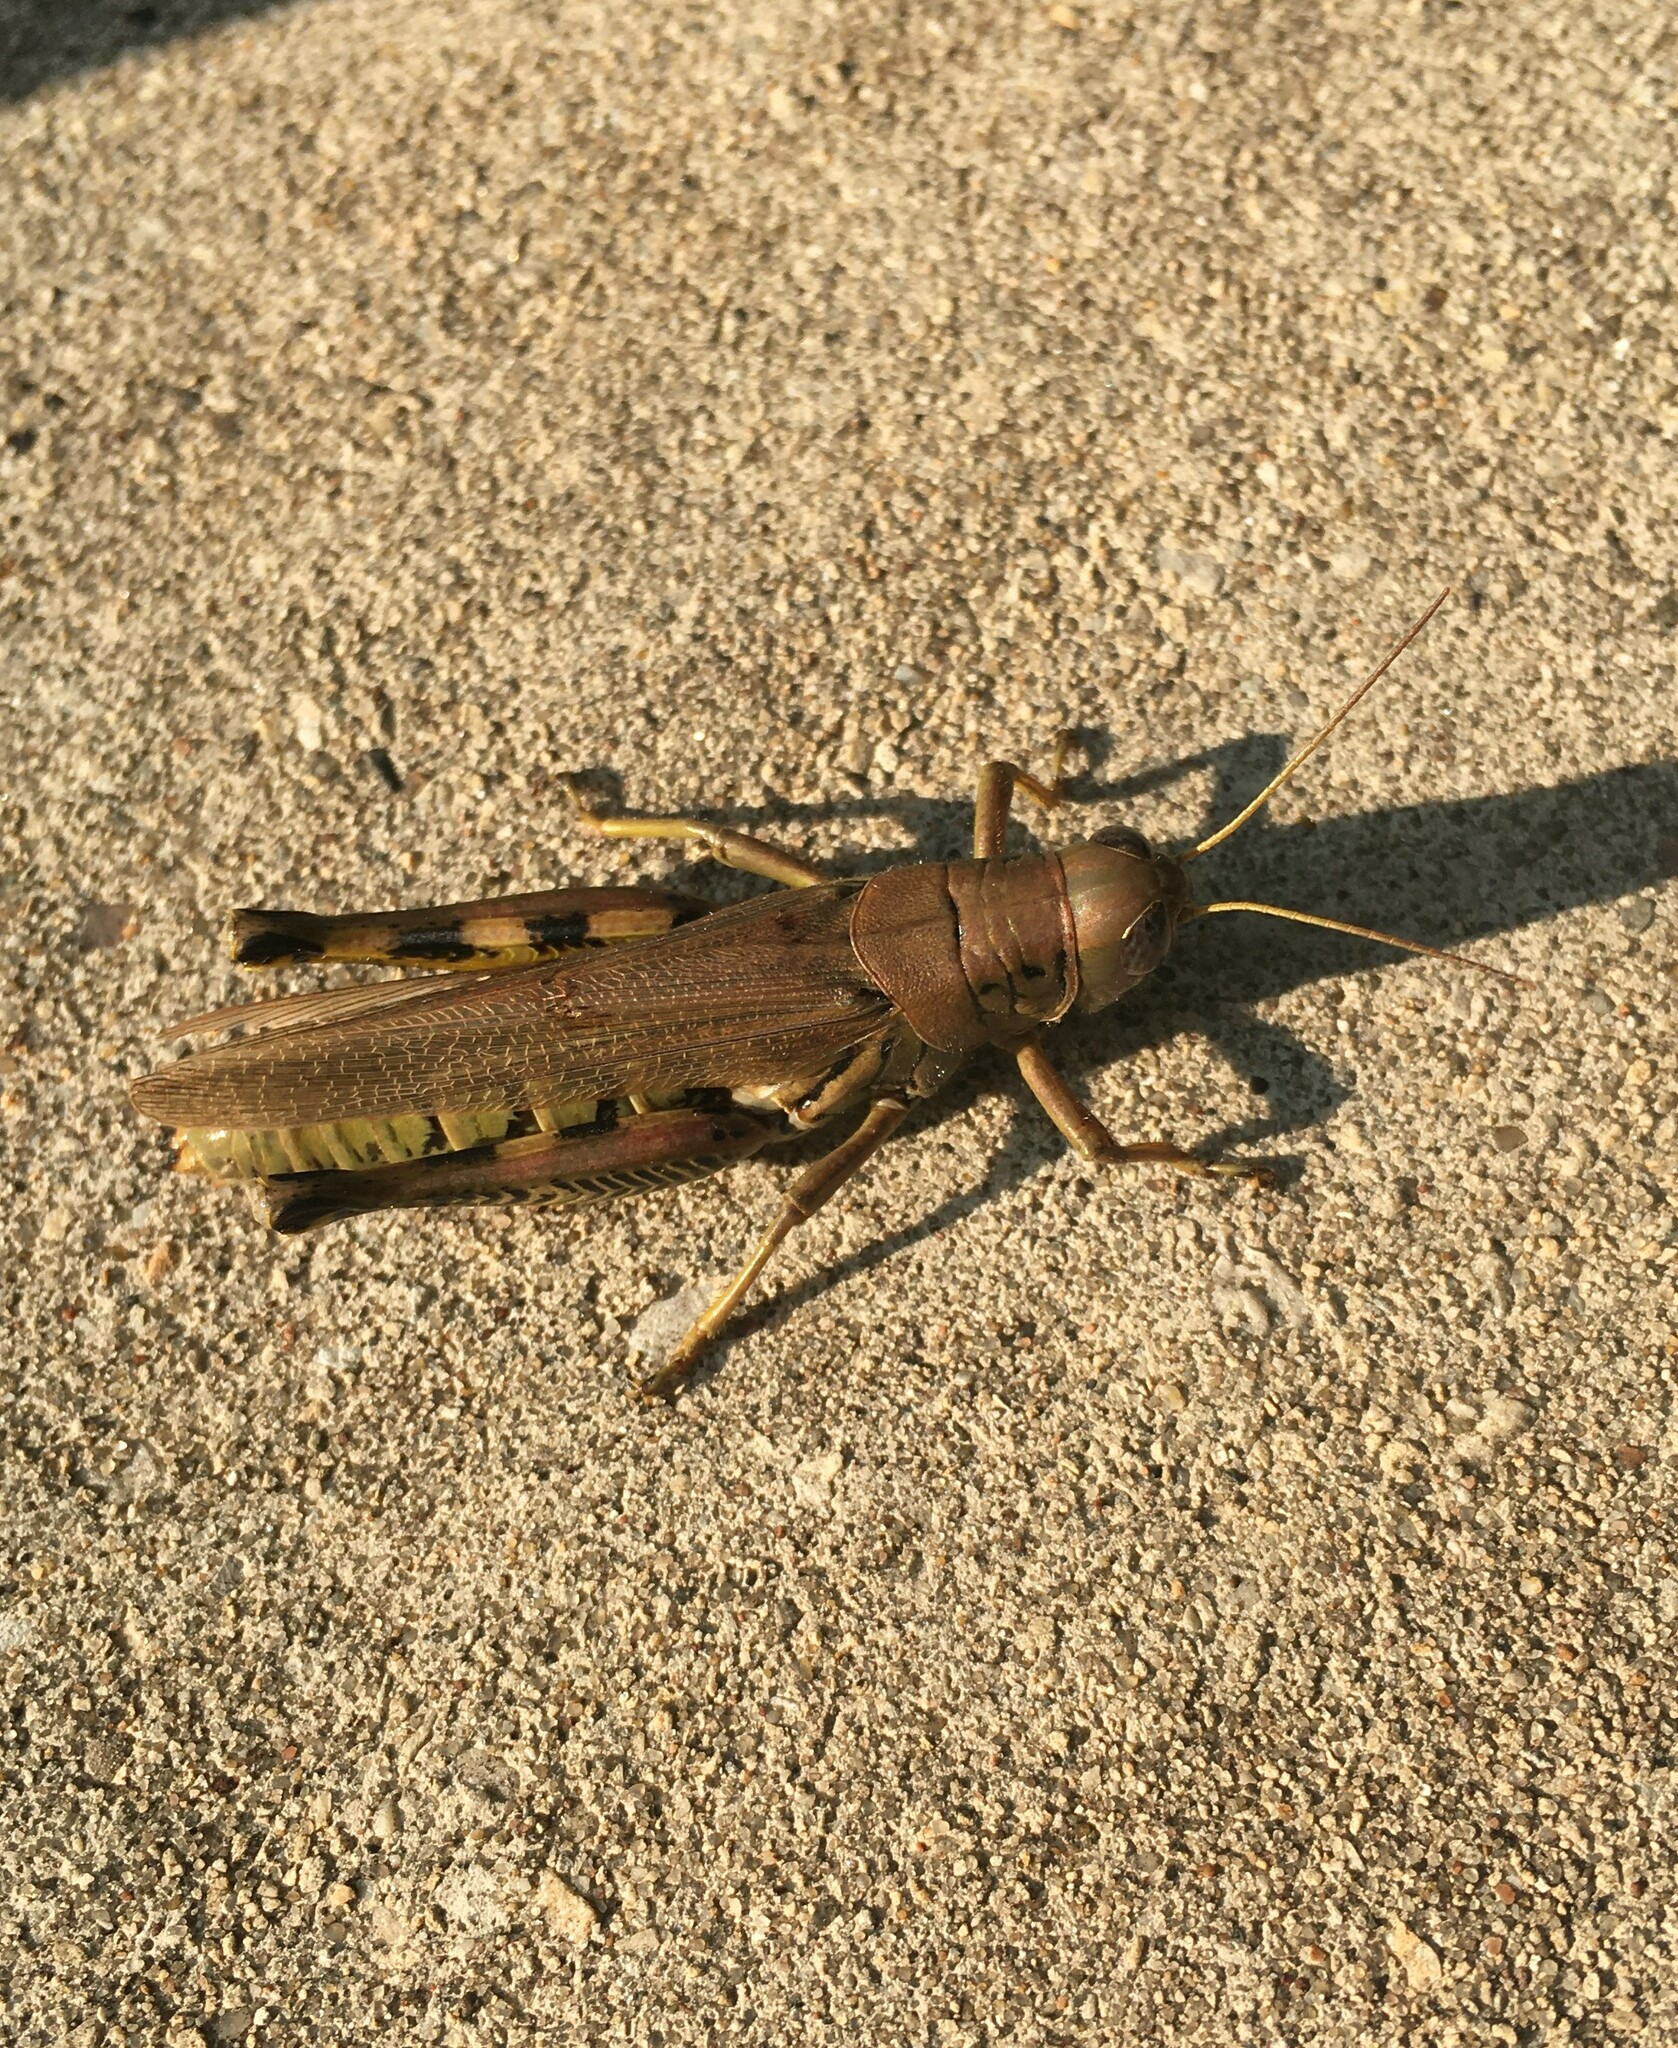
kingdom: Animalia
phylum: Arthropoda
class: Insecta
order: Orthoptera
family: Acrididae
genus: Melanoplus
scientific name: Melanoplus differentialis
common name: Differential grasshopper
